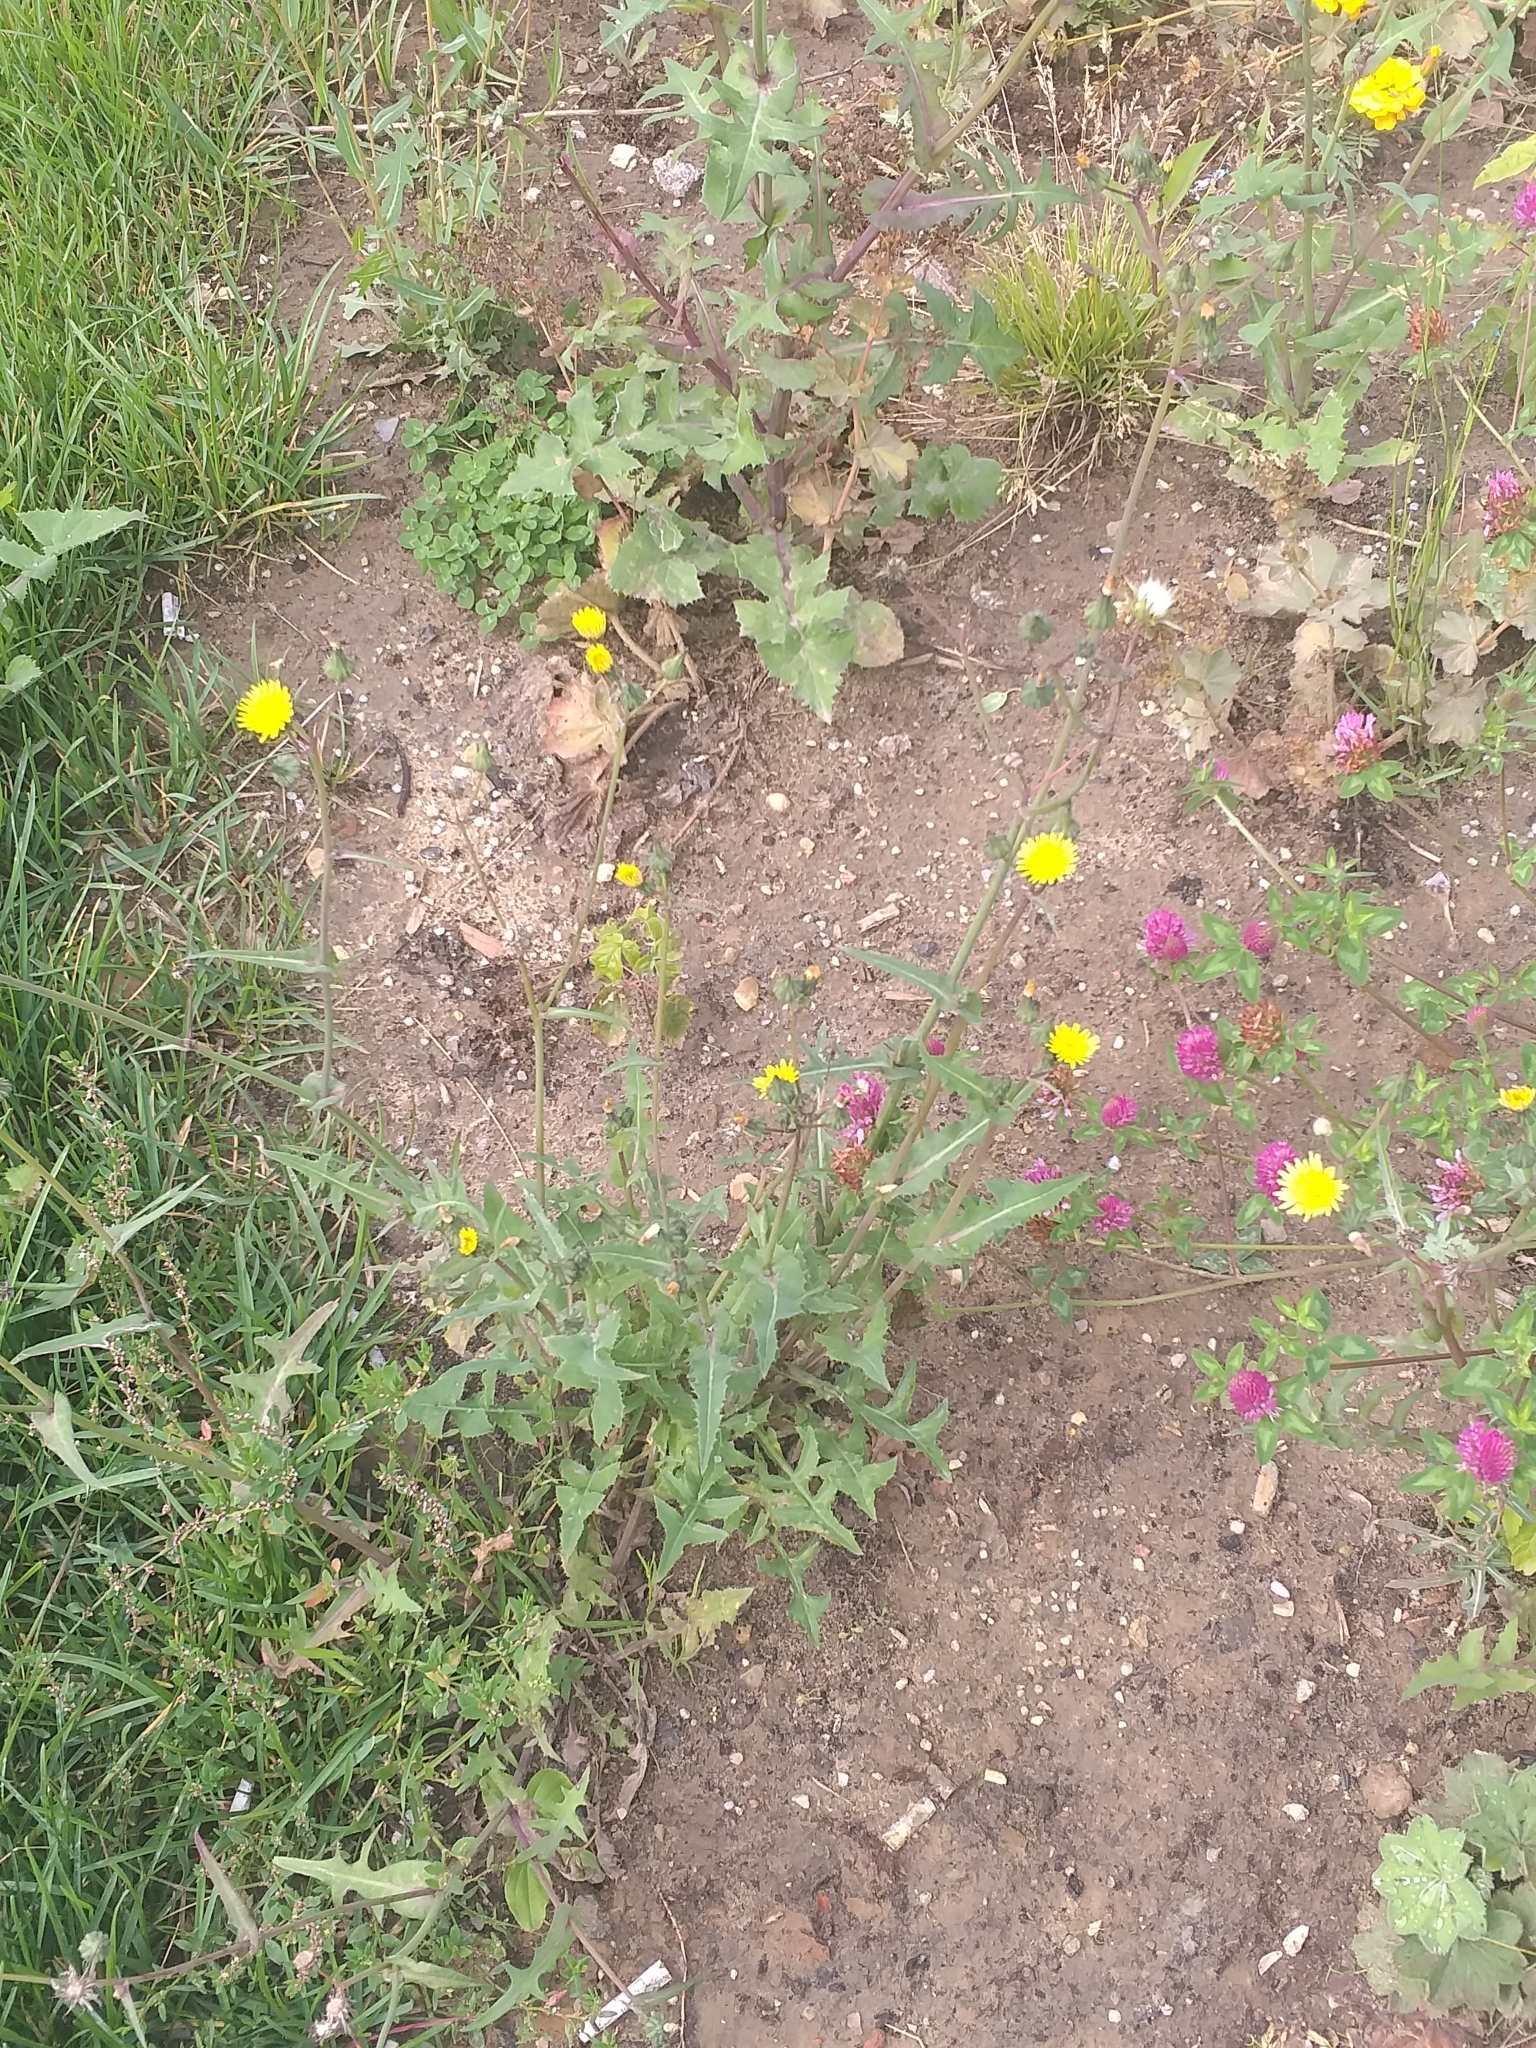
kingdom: Plantae
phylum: Tracheophyta
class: Magnoliopsida
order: Asterales
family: Asteraceae
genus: Sonchus
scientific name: Sonchus oleraceus
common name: Common sowthistle
